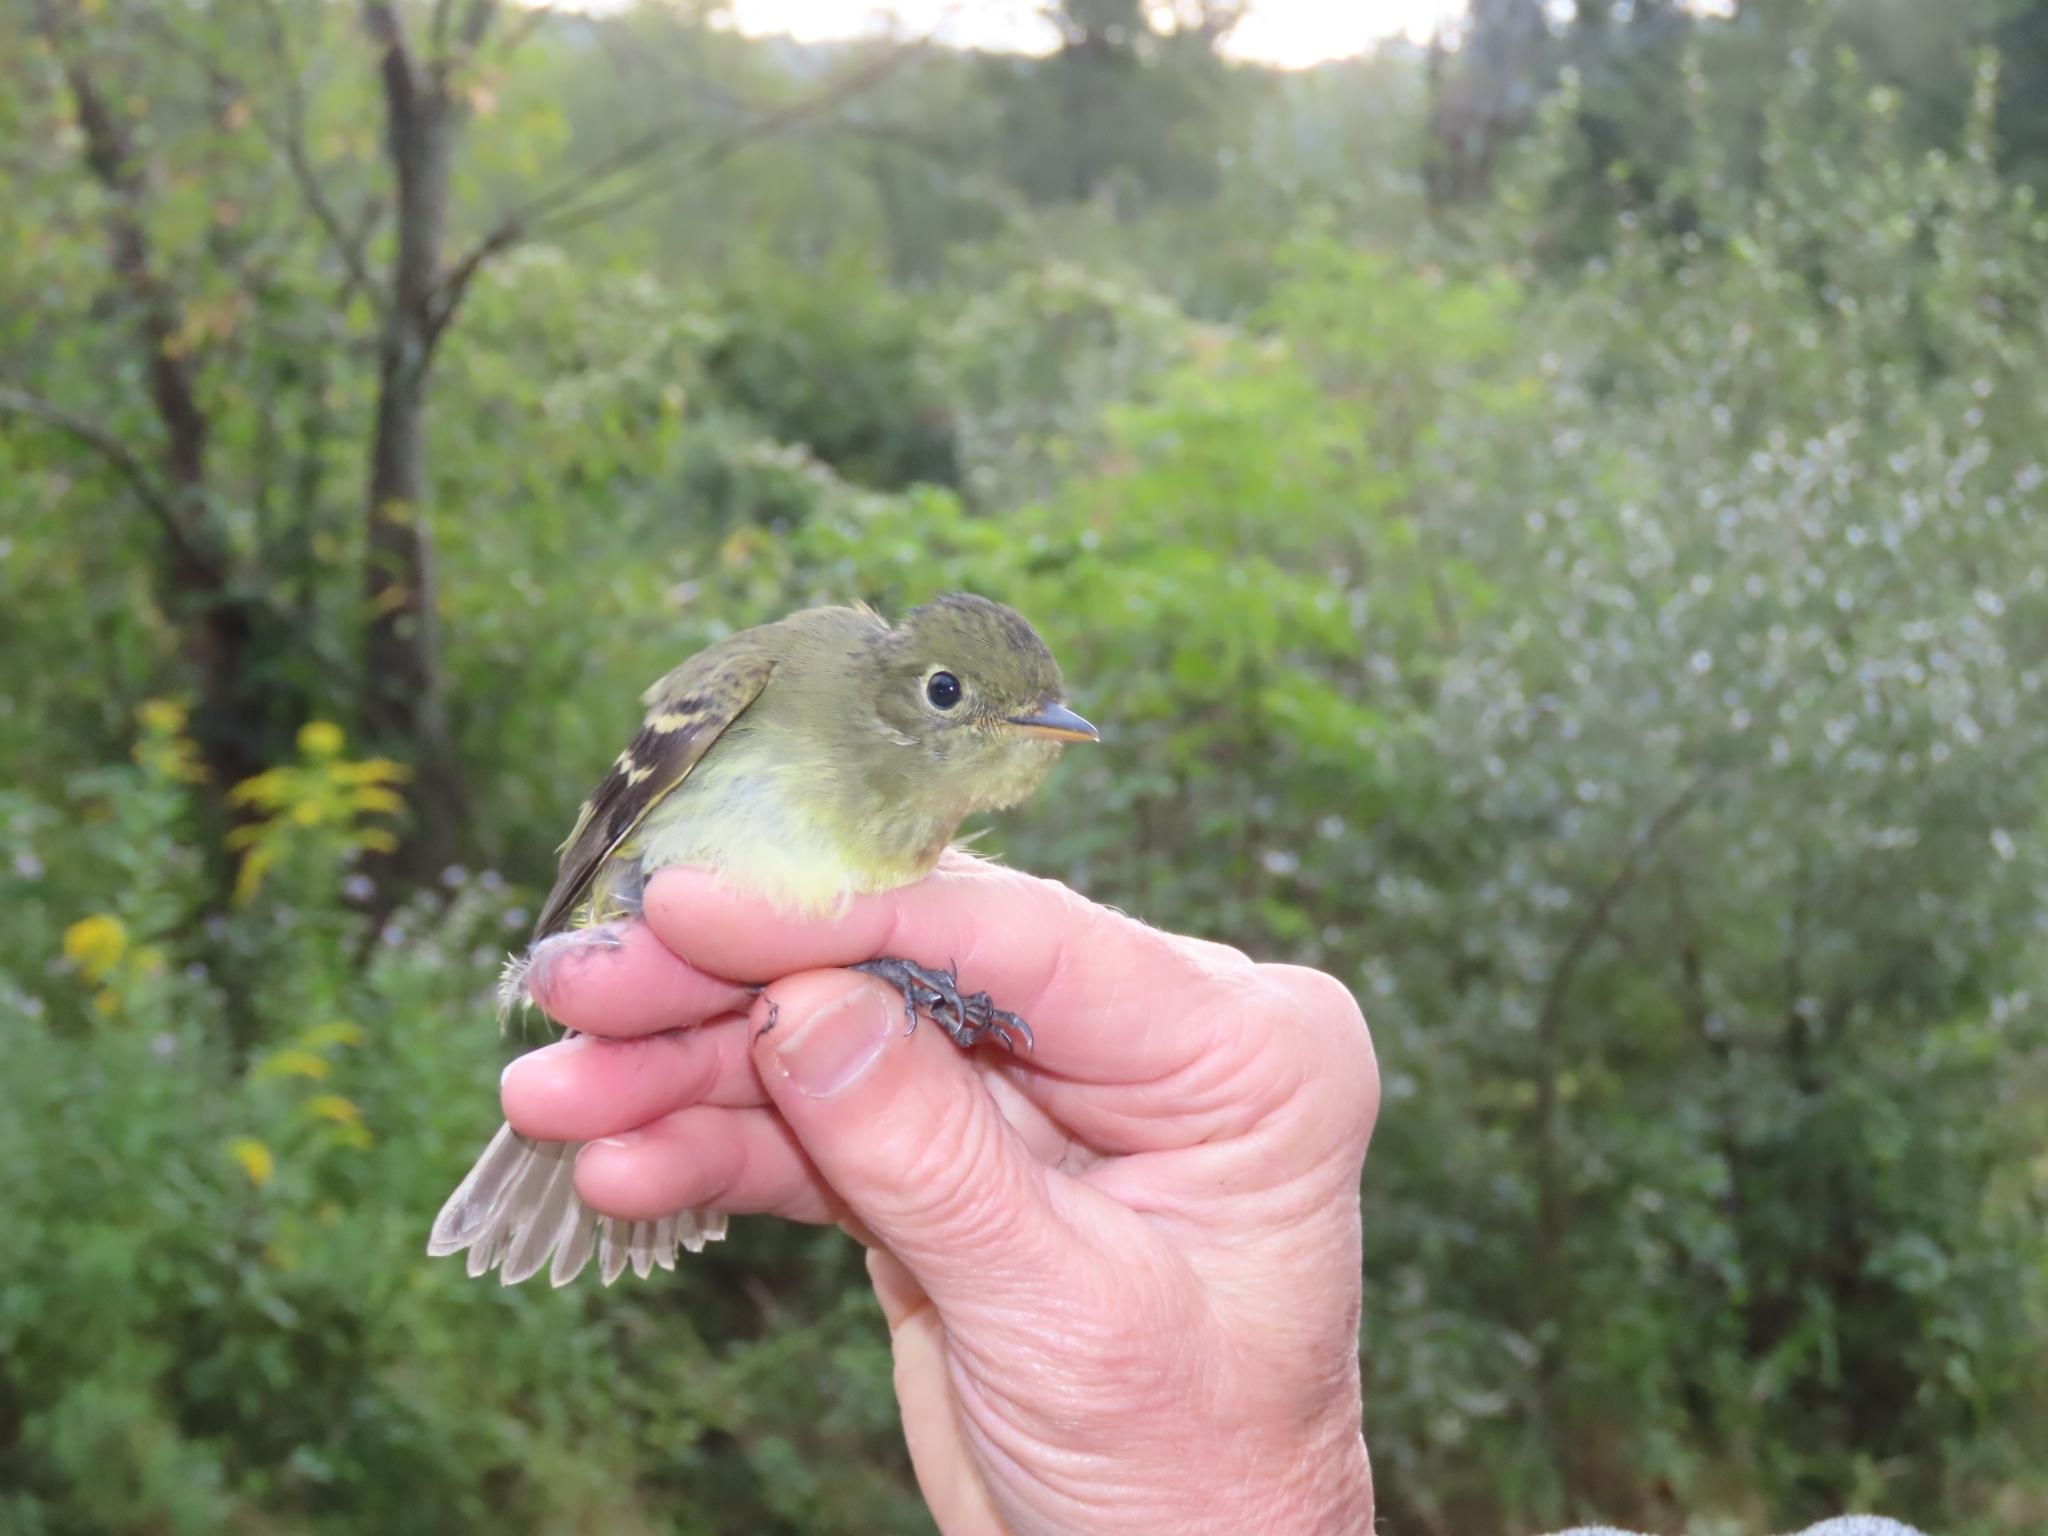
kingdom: Animalia
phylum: Chordata
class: Aves
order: Passeriformes
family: Tyrannidae
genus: Empidonax
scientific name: Empidonax flaviventris
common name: Yellow-bellied flycatcher
